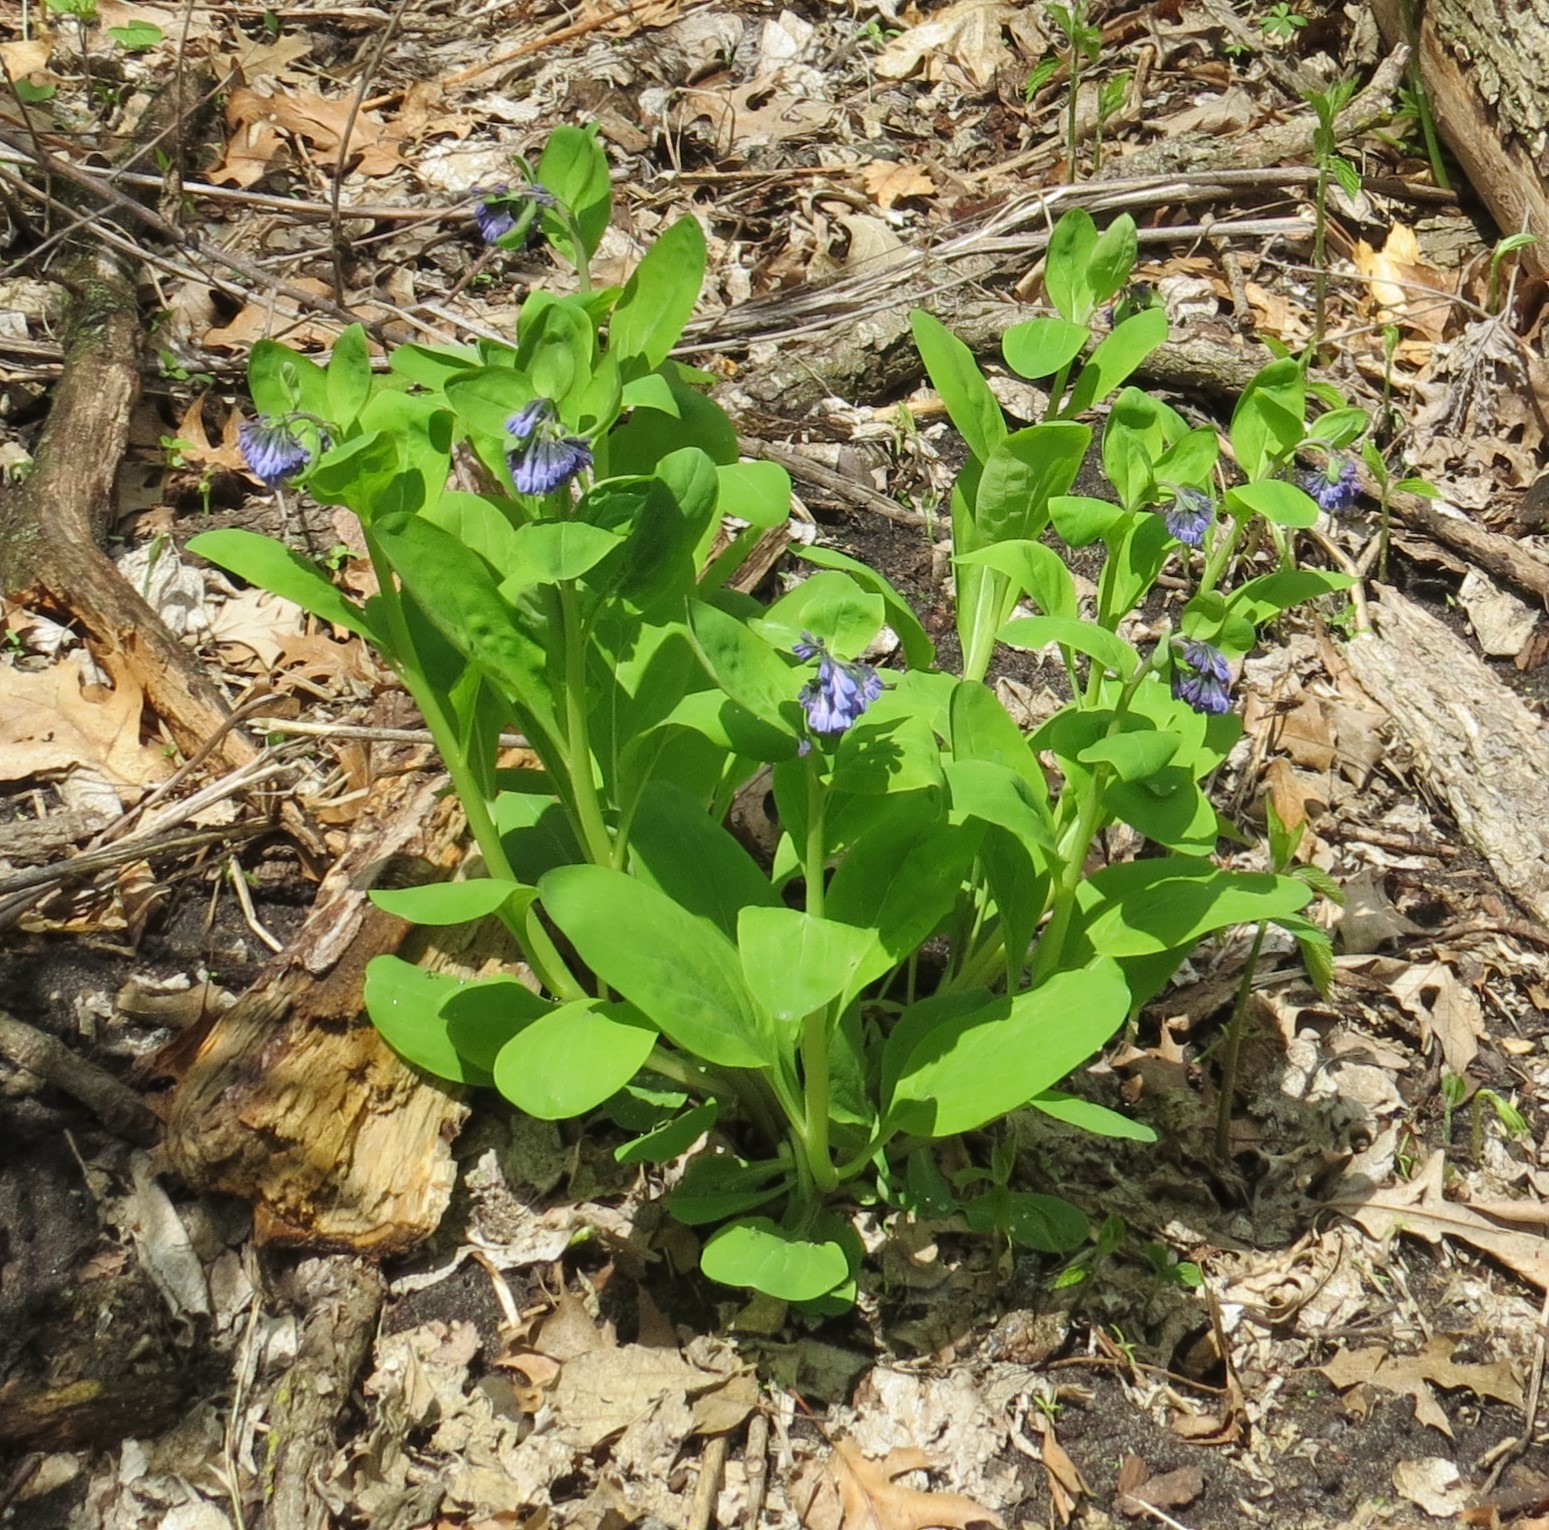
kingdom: Plantae
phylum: Tracheophyta
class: Magnoliopsida
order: Boraginales
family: Boraginaceae
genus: Mertensia
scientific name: Mertensia virginica
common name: Virginia bluebells
